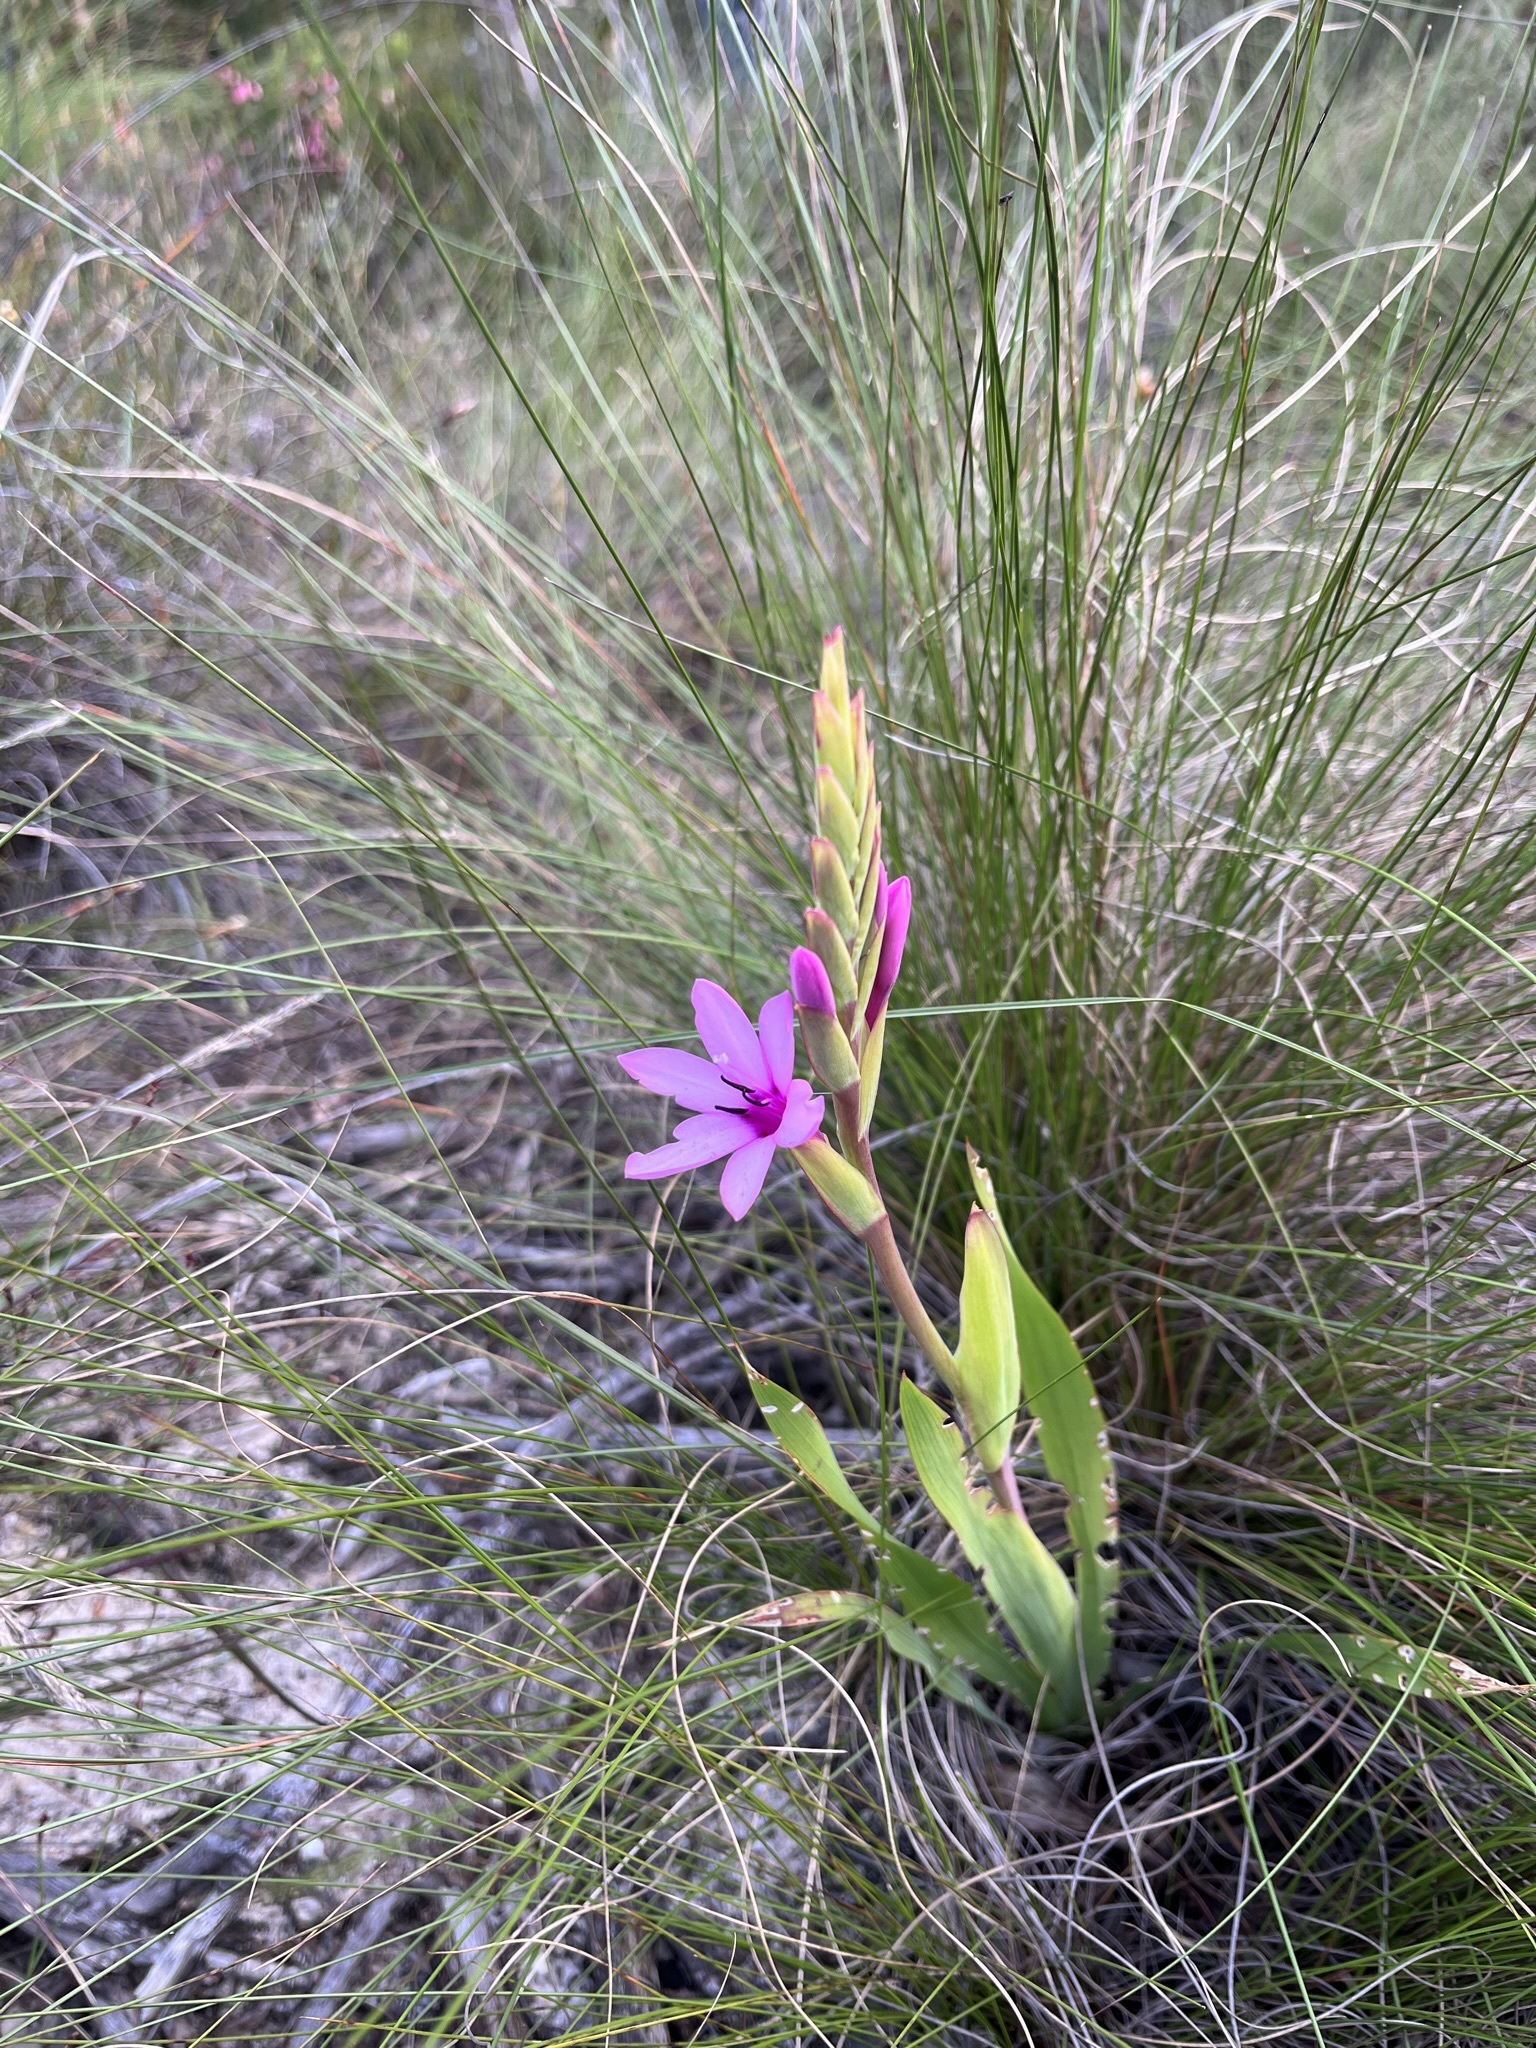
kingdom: Plantae
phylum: Tracheophyta
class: Liliopsida
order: Asparagales
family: Iridaceae
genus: Watsonia
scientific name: Watsonia humilis
